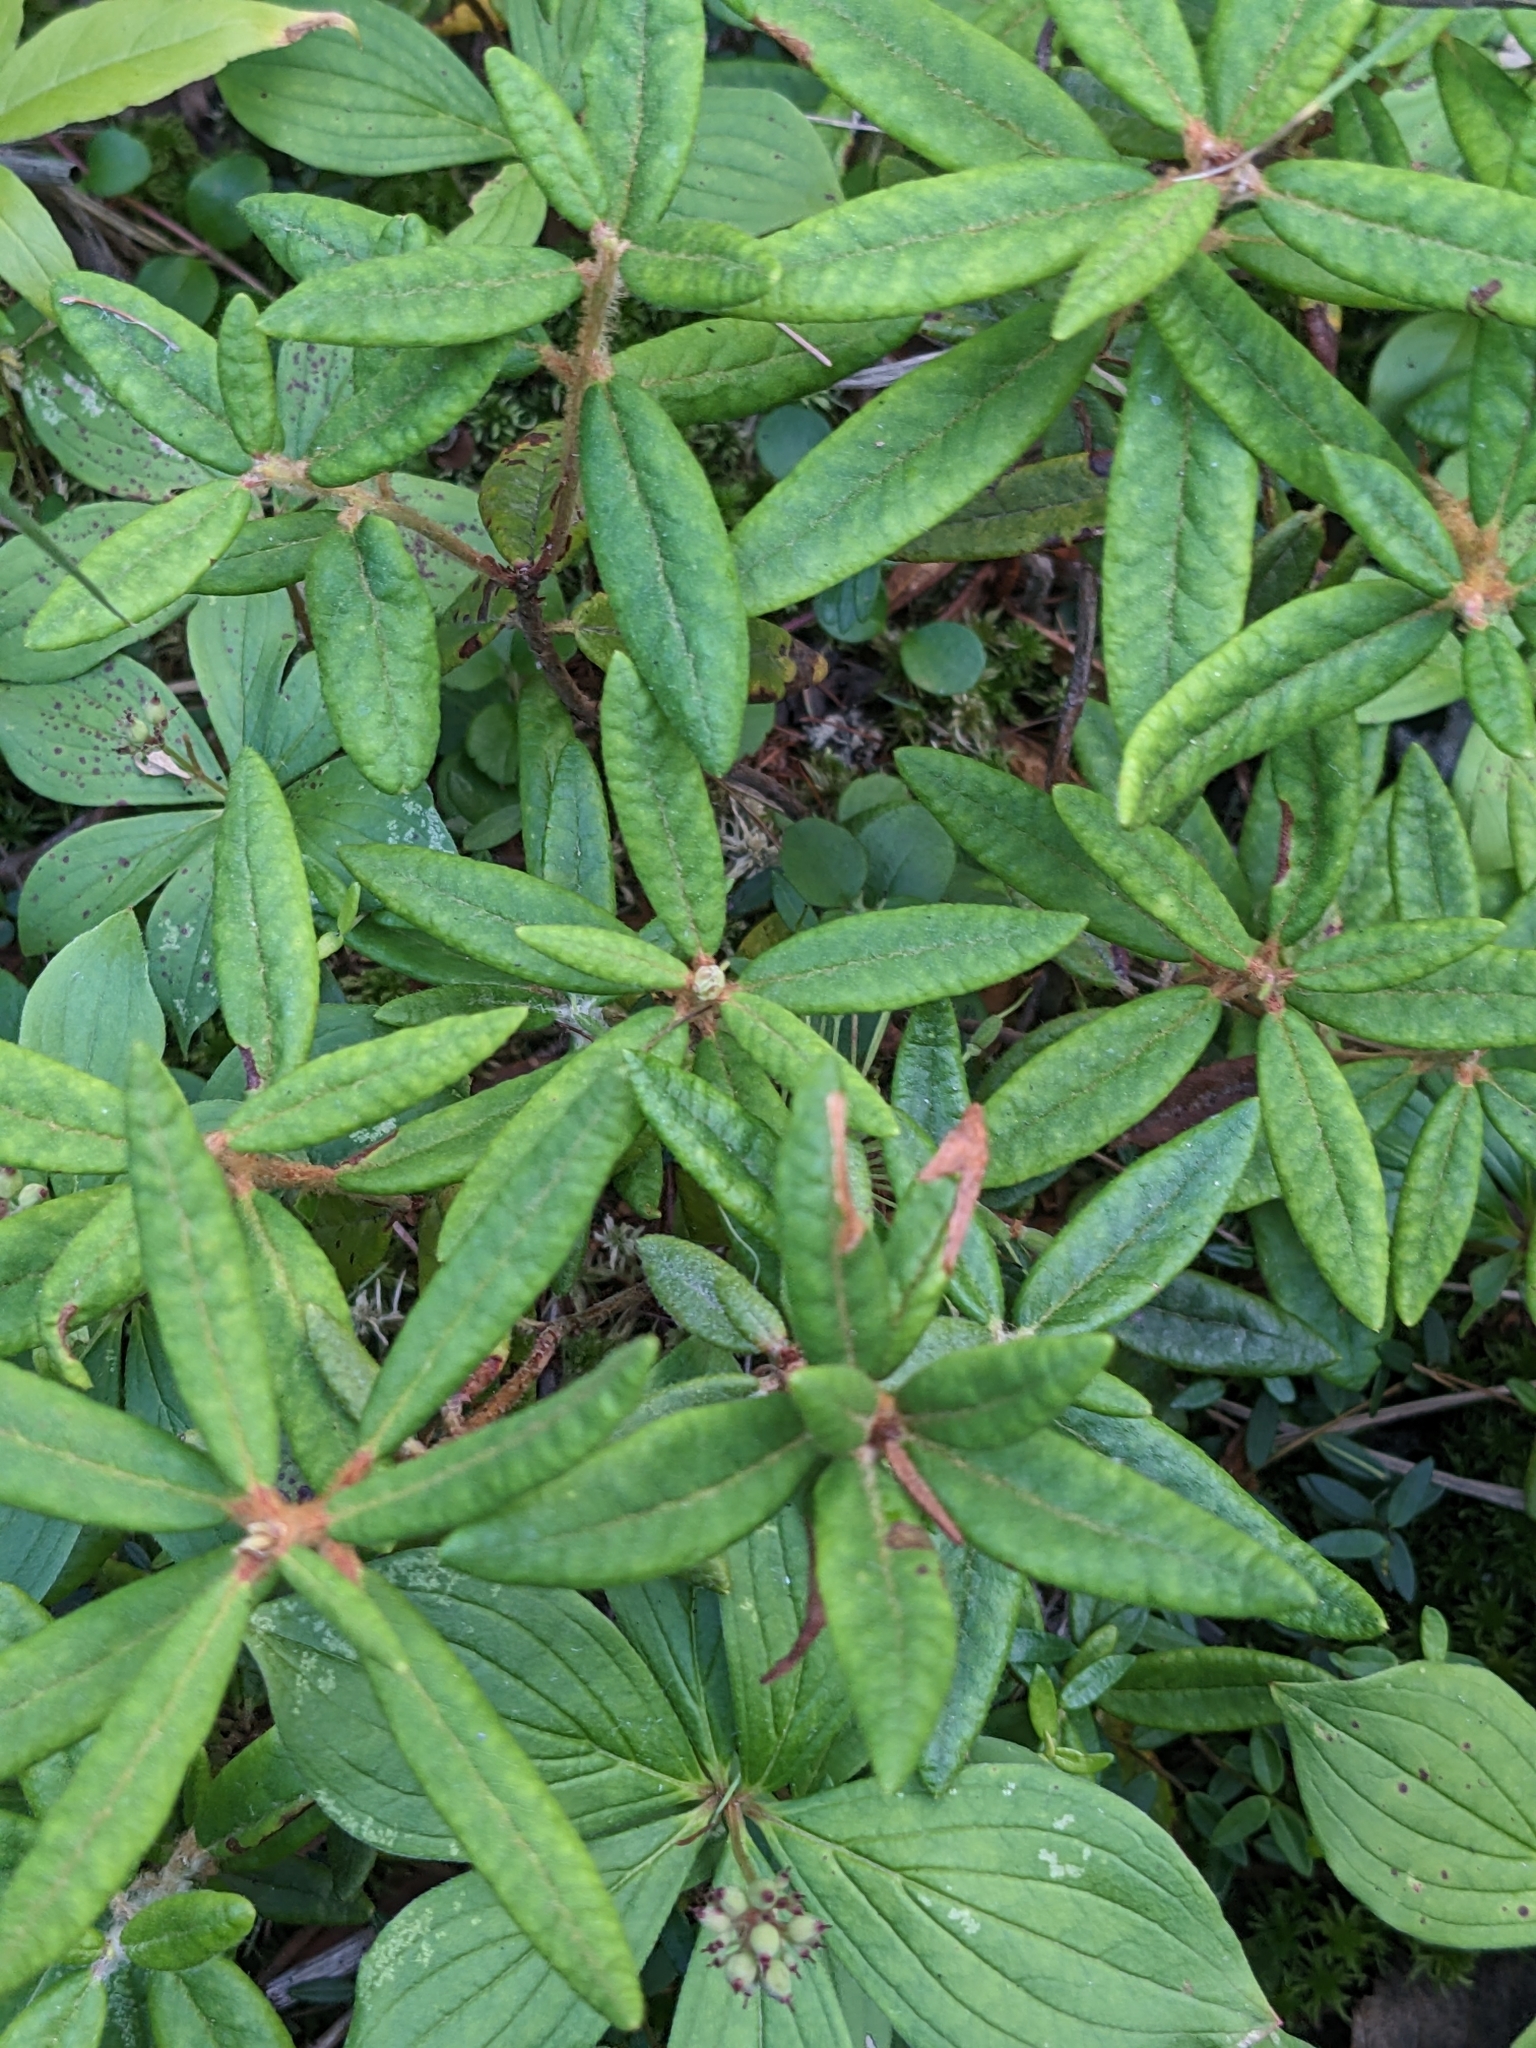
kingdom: Plantae
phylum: Tracheophyta
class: Magnoliopsida
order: Ericales
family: Ericaceae
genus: Rhododendron
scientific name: Rhododendron groenlandicum
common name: Bog labrador tea
